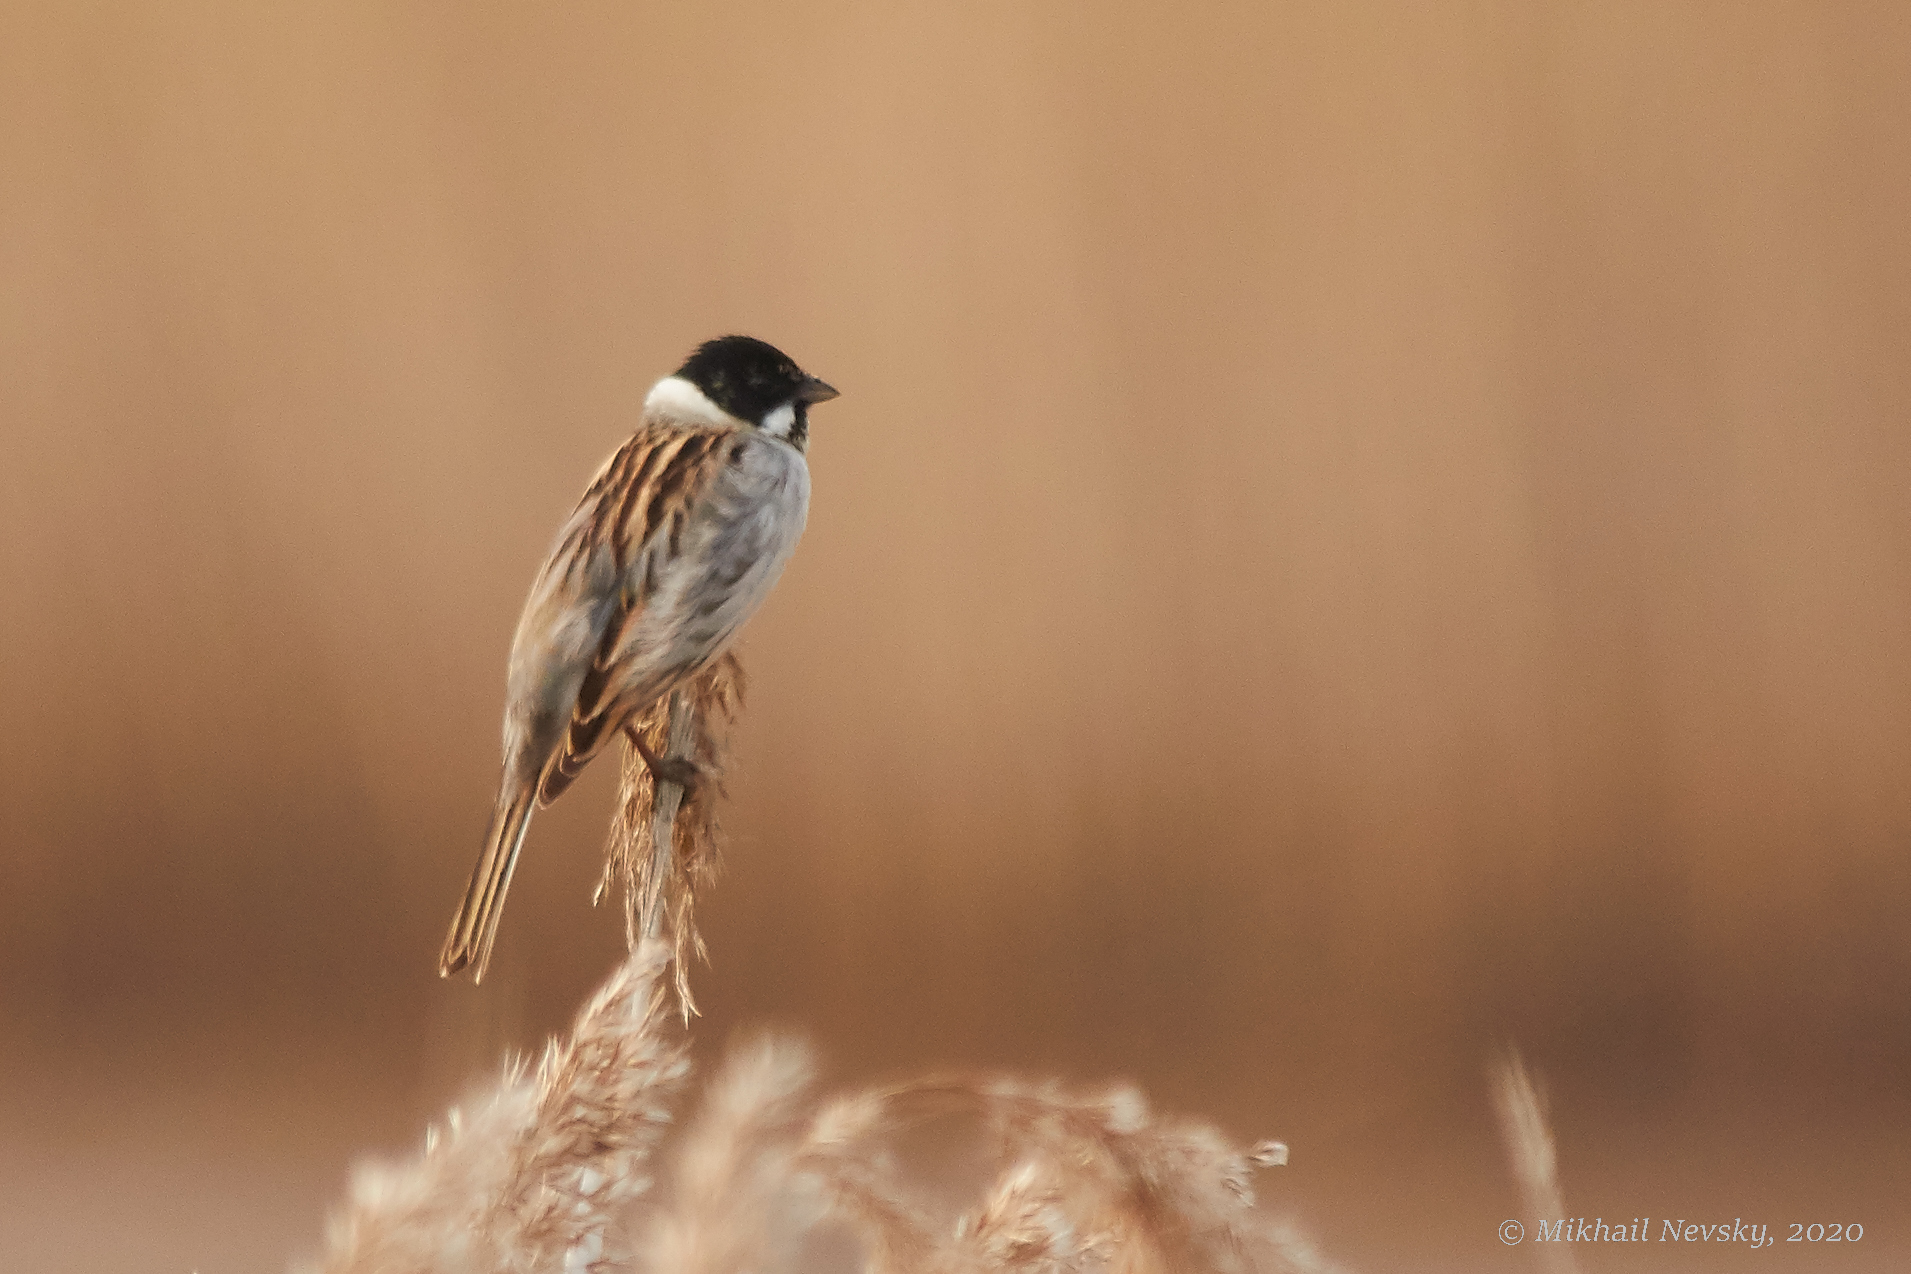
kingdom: Animalia
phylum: Chordata
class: Aves
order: Passeriformes
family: Emberizidae
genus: Emberiza
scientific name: Emberiza schoeniclus
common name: Reed bunting
